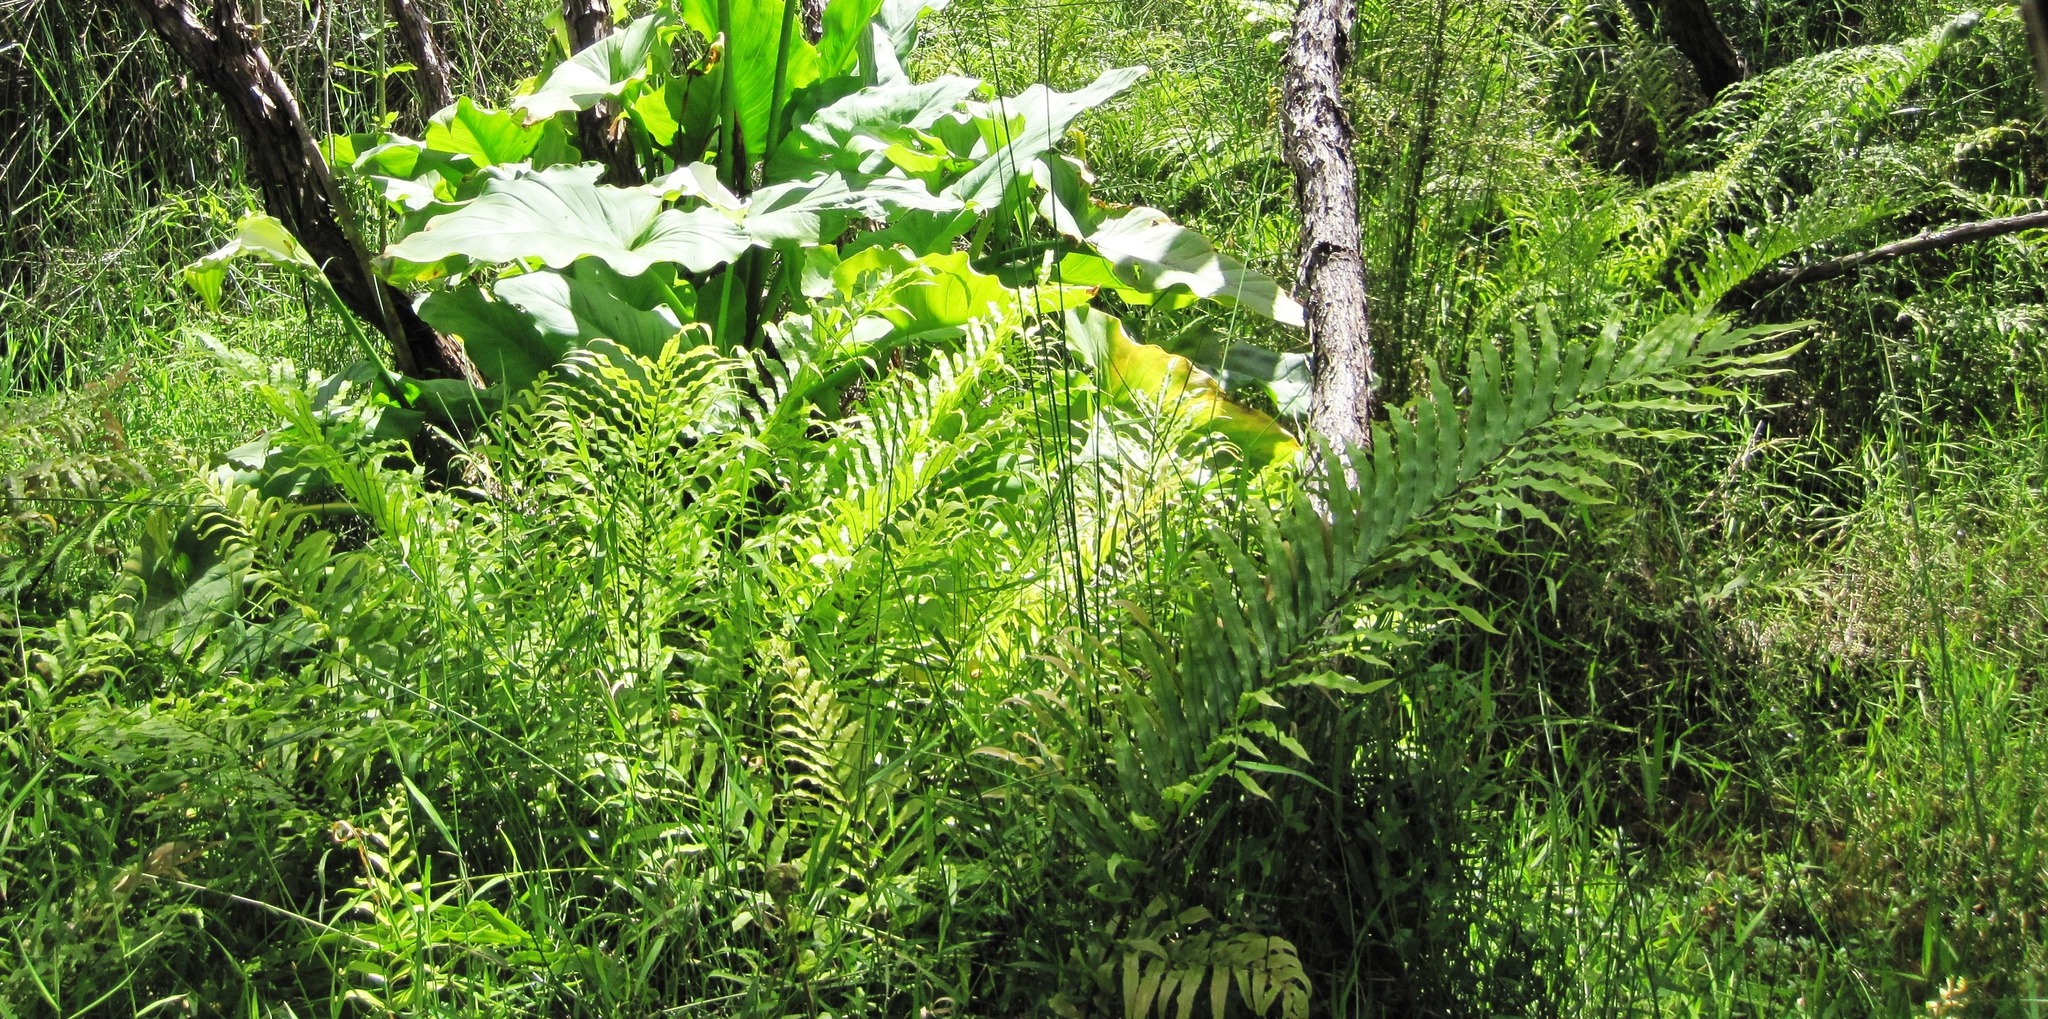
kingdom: Plantae
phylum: Tracheophyta
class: Polypodiopsida
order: Polypodiales
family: Blechnaceae
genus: Parablechnum
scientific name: Parablechnum minus
